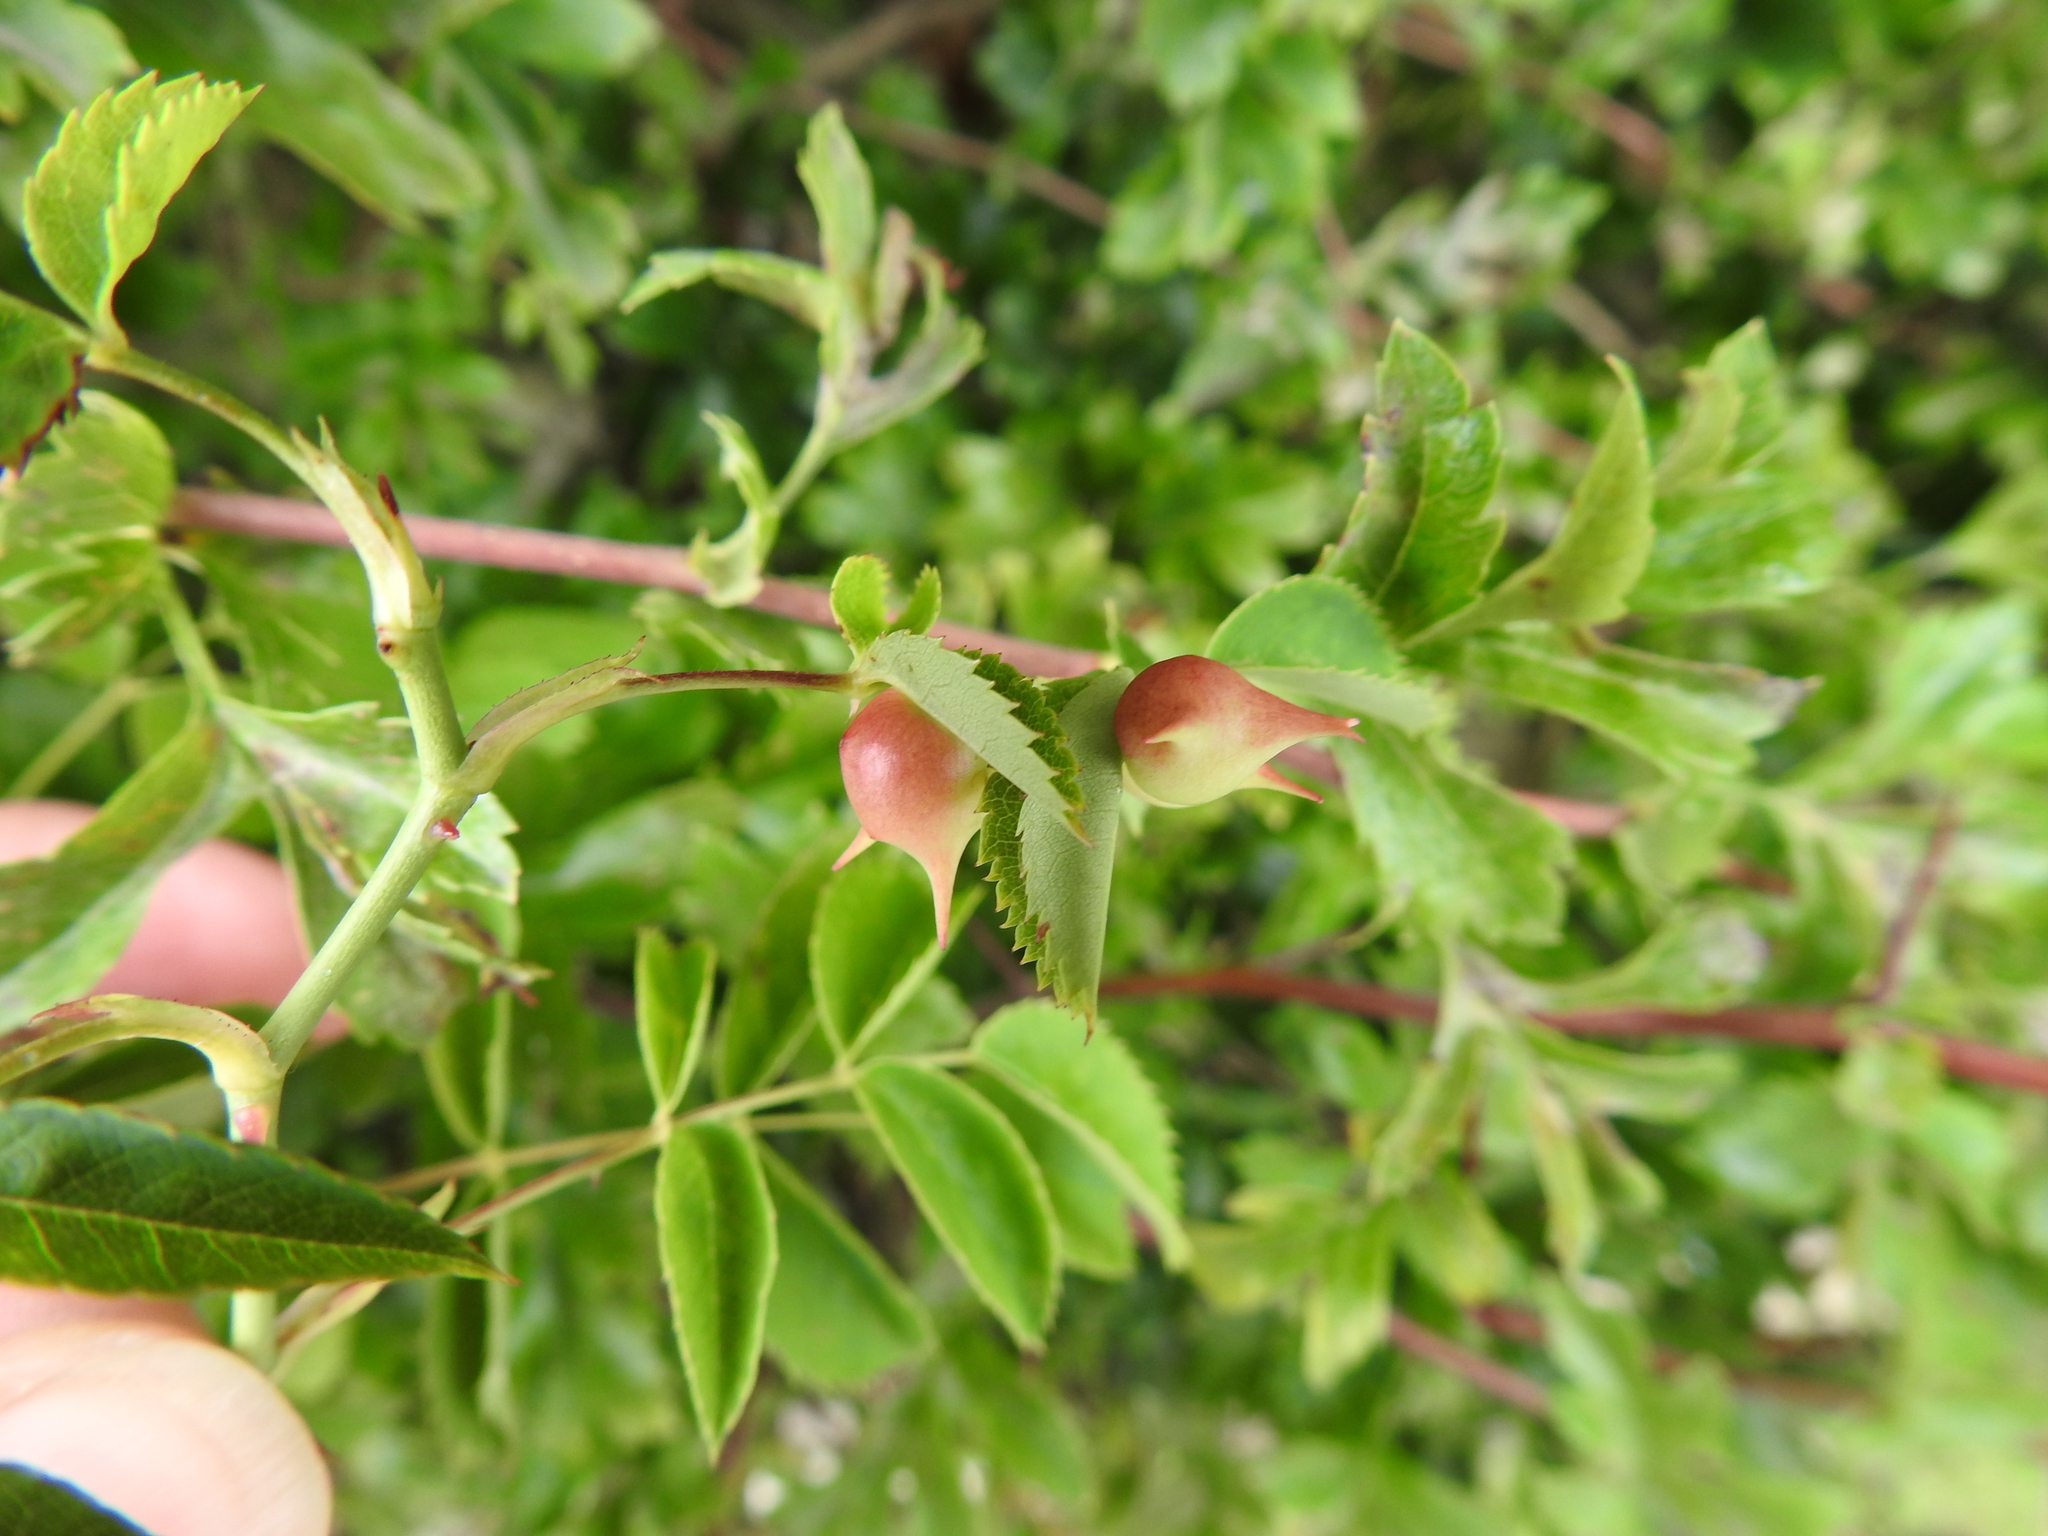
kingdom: Animalia
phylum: Arthropoda
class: Insecta
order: Hymenoptera
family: Cynipidae
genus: Diplolepis
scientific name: Diplolepis nervosa
